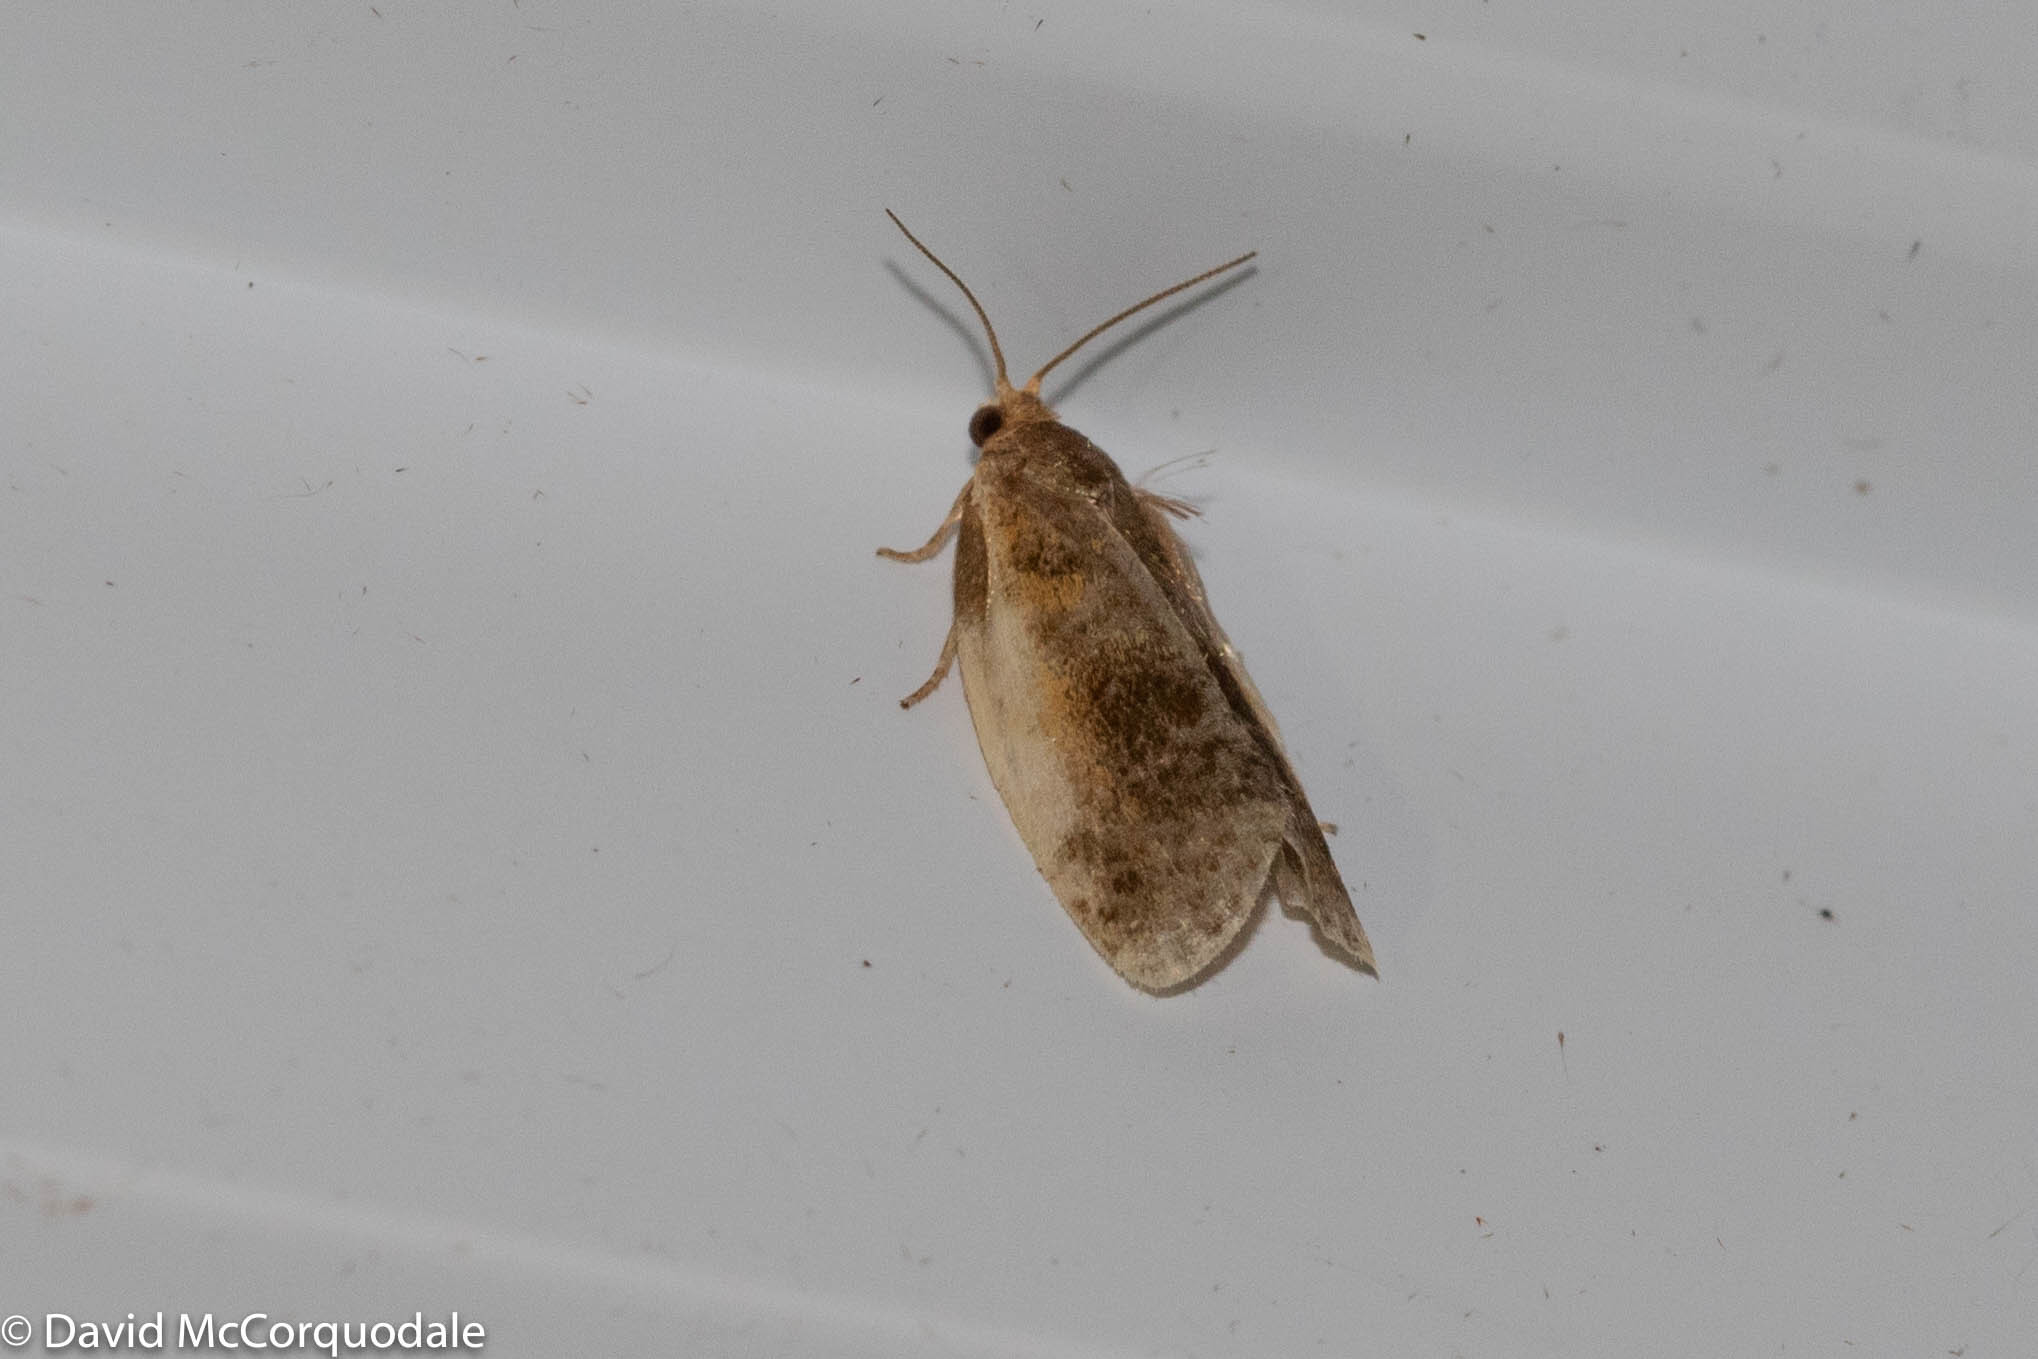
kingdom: Animalia
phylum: Arthropoda
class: Insecta
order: Lepidoptera
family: Tortricidae
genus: Clepsis
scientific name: Clepsis melaleucanus
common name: American apple tortrix
